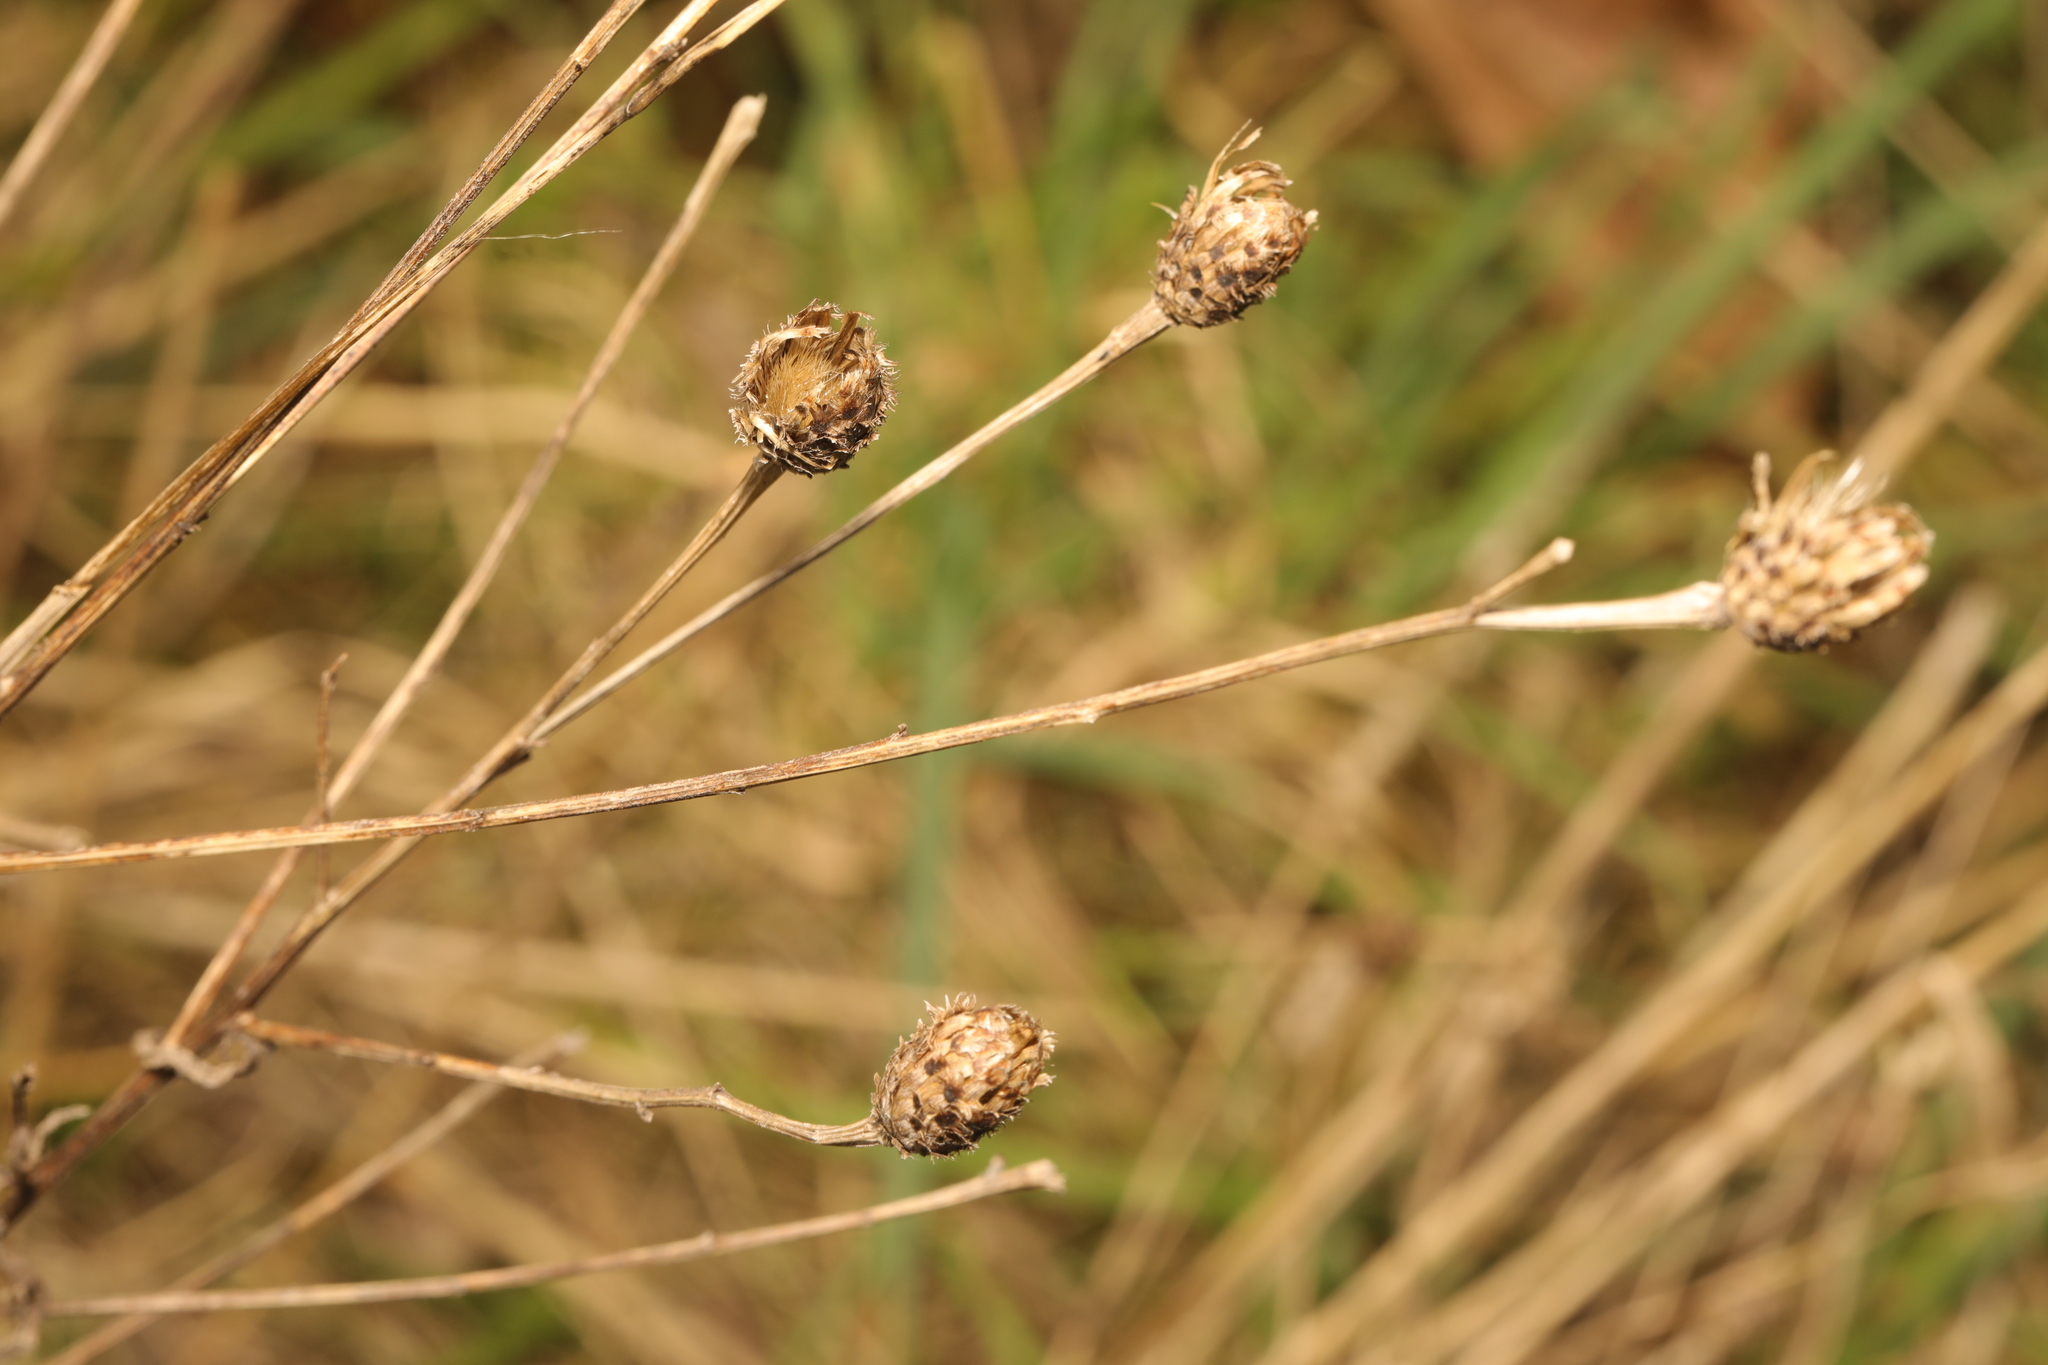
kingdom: Plantae
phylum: Tracheophyta
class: Magnoliopsida
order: Asterales
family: Asteraceae
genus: Centaurea
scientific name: Centaurea nigra
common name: Lesser knapweed
